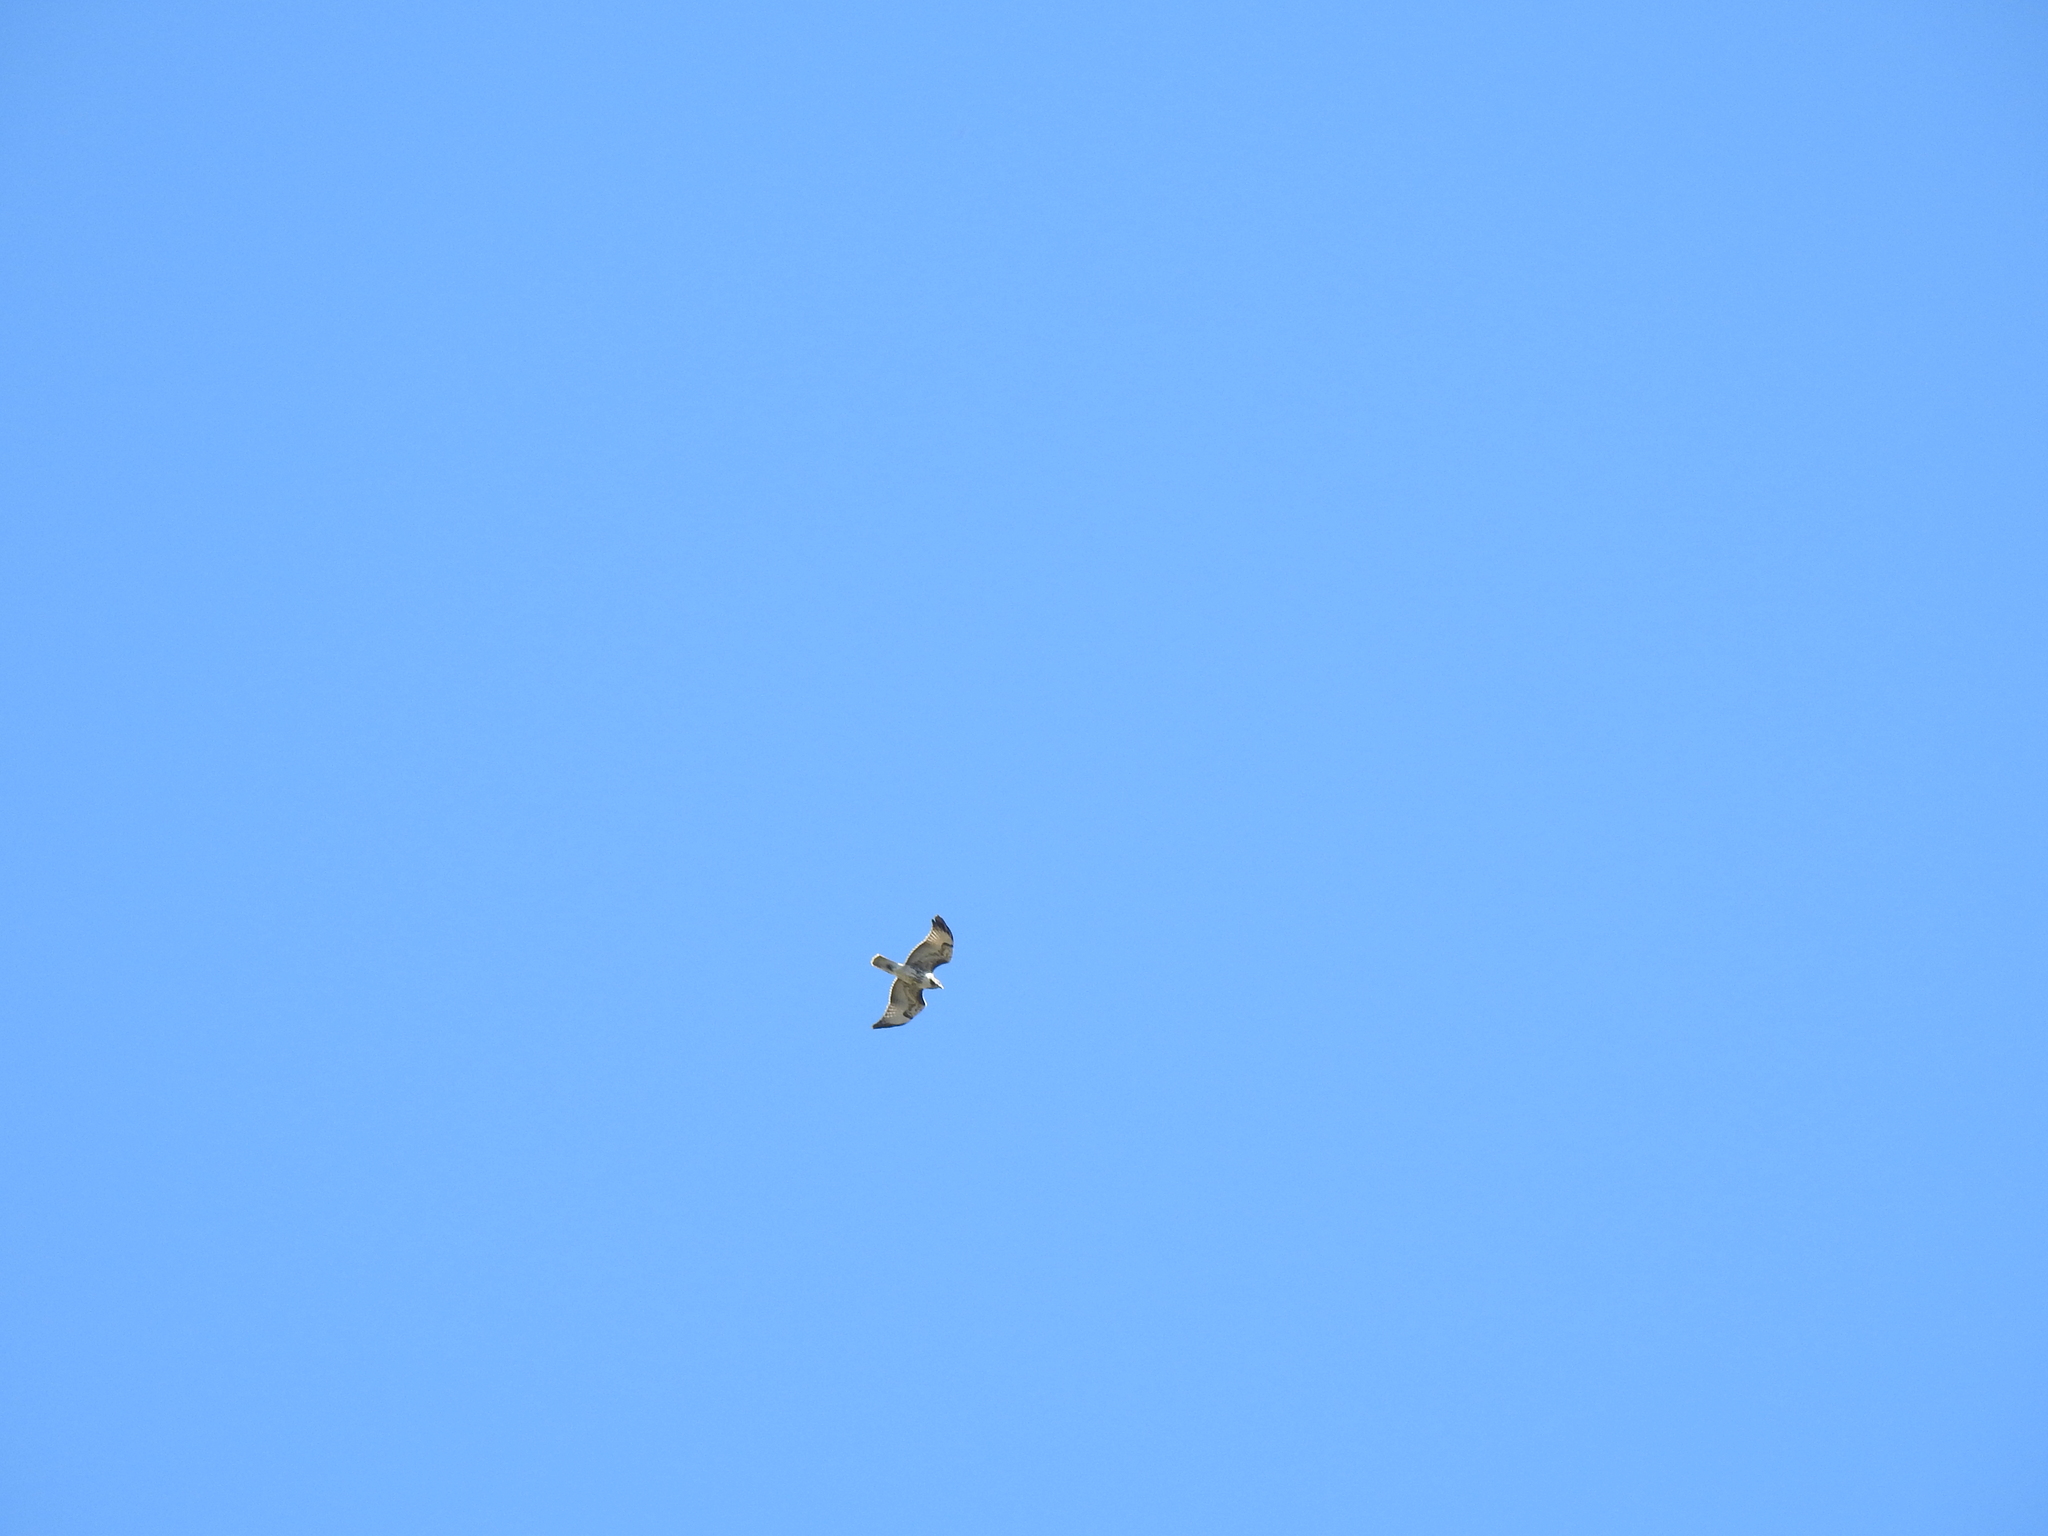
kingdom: Animalia
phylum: Chordata
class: Aves
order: Accipitriformes
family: Accipitridae
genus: Buteo
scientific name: Buteo jamaicensis
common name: Red-tailed hawk
